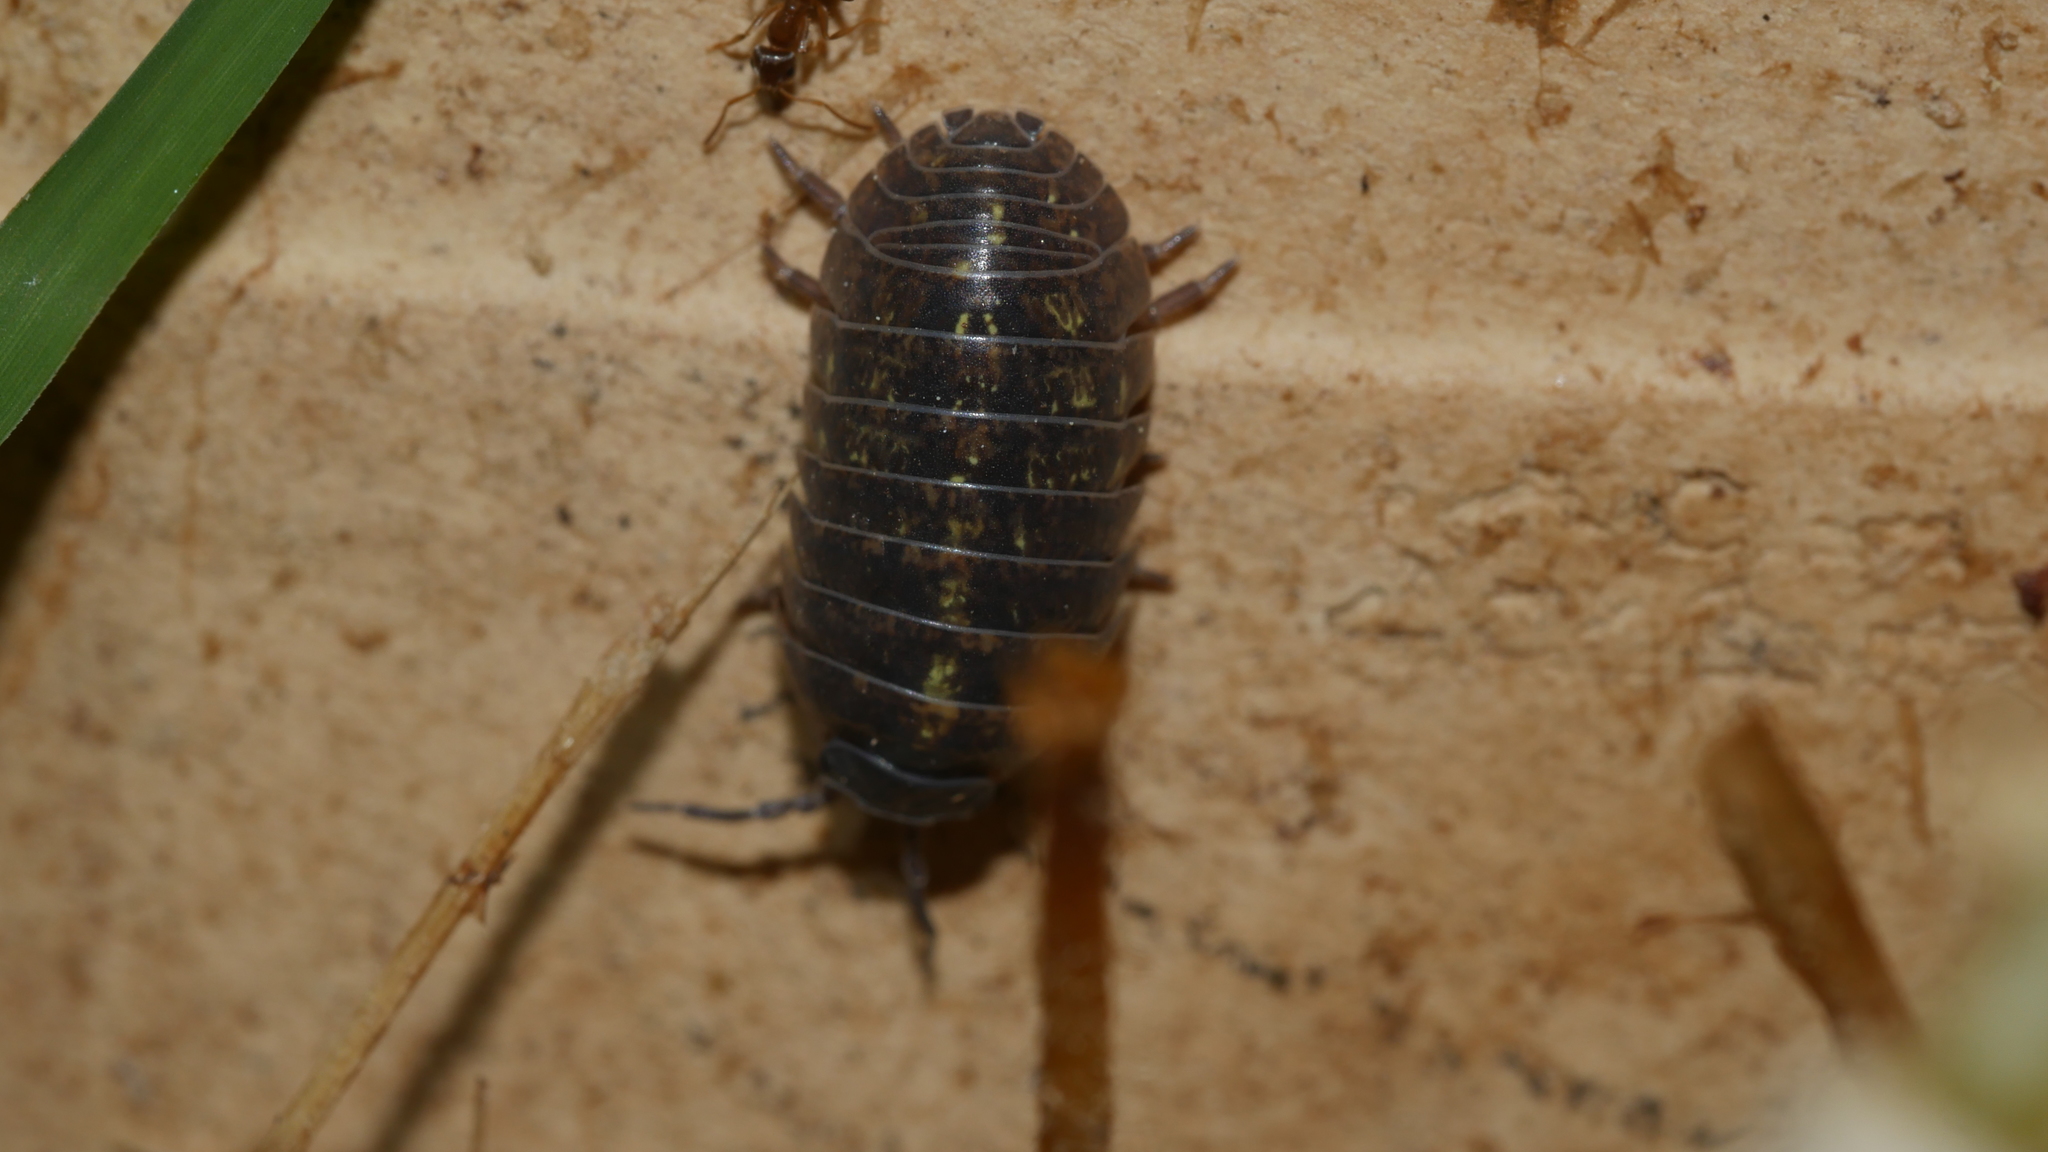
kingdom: Animalia
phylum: Arthropoda
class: Malacostraca
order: Isopoda
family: Armadillidiidae
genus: Armadillidium
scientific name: Armadillidium vulgare
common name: Common pill woodlouse
